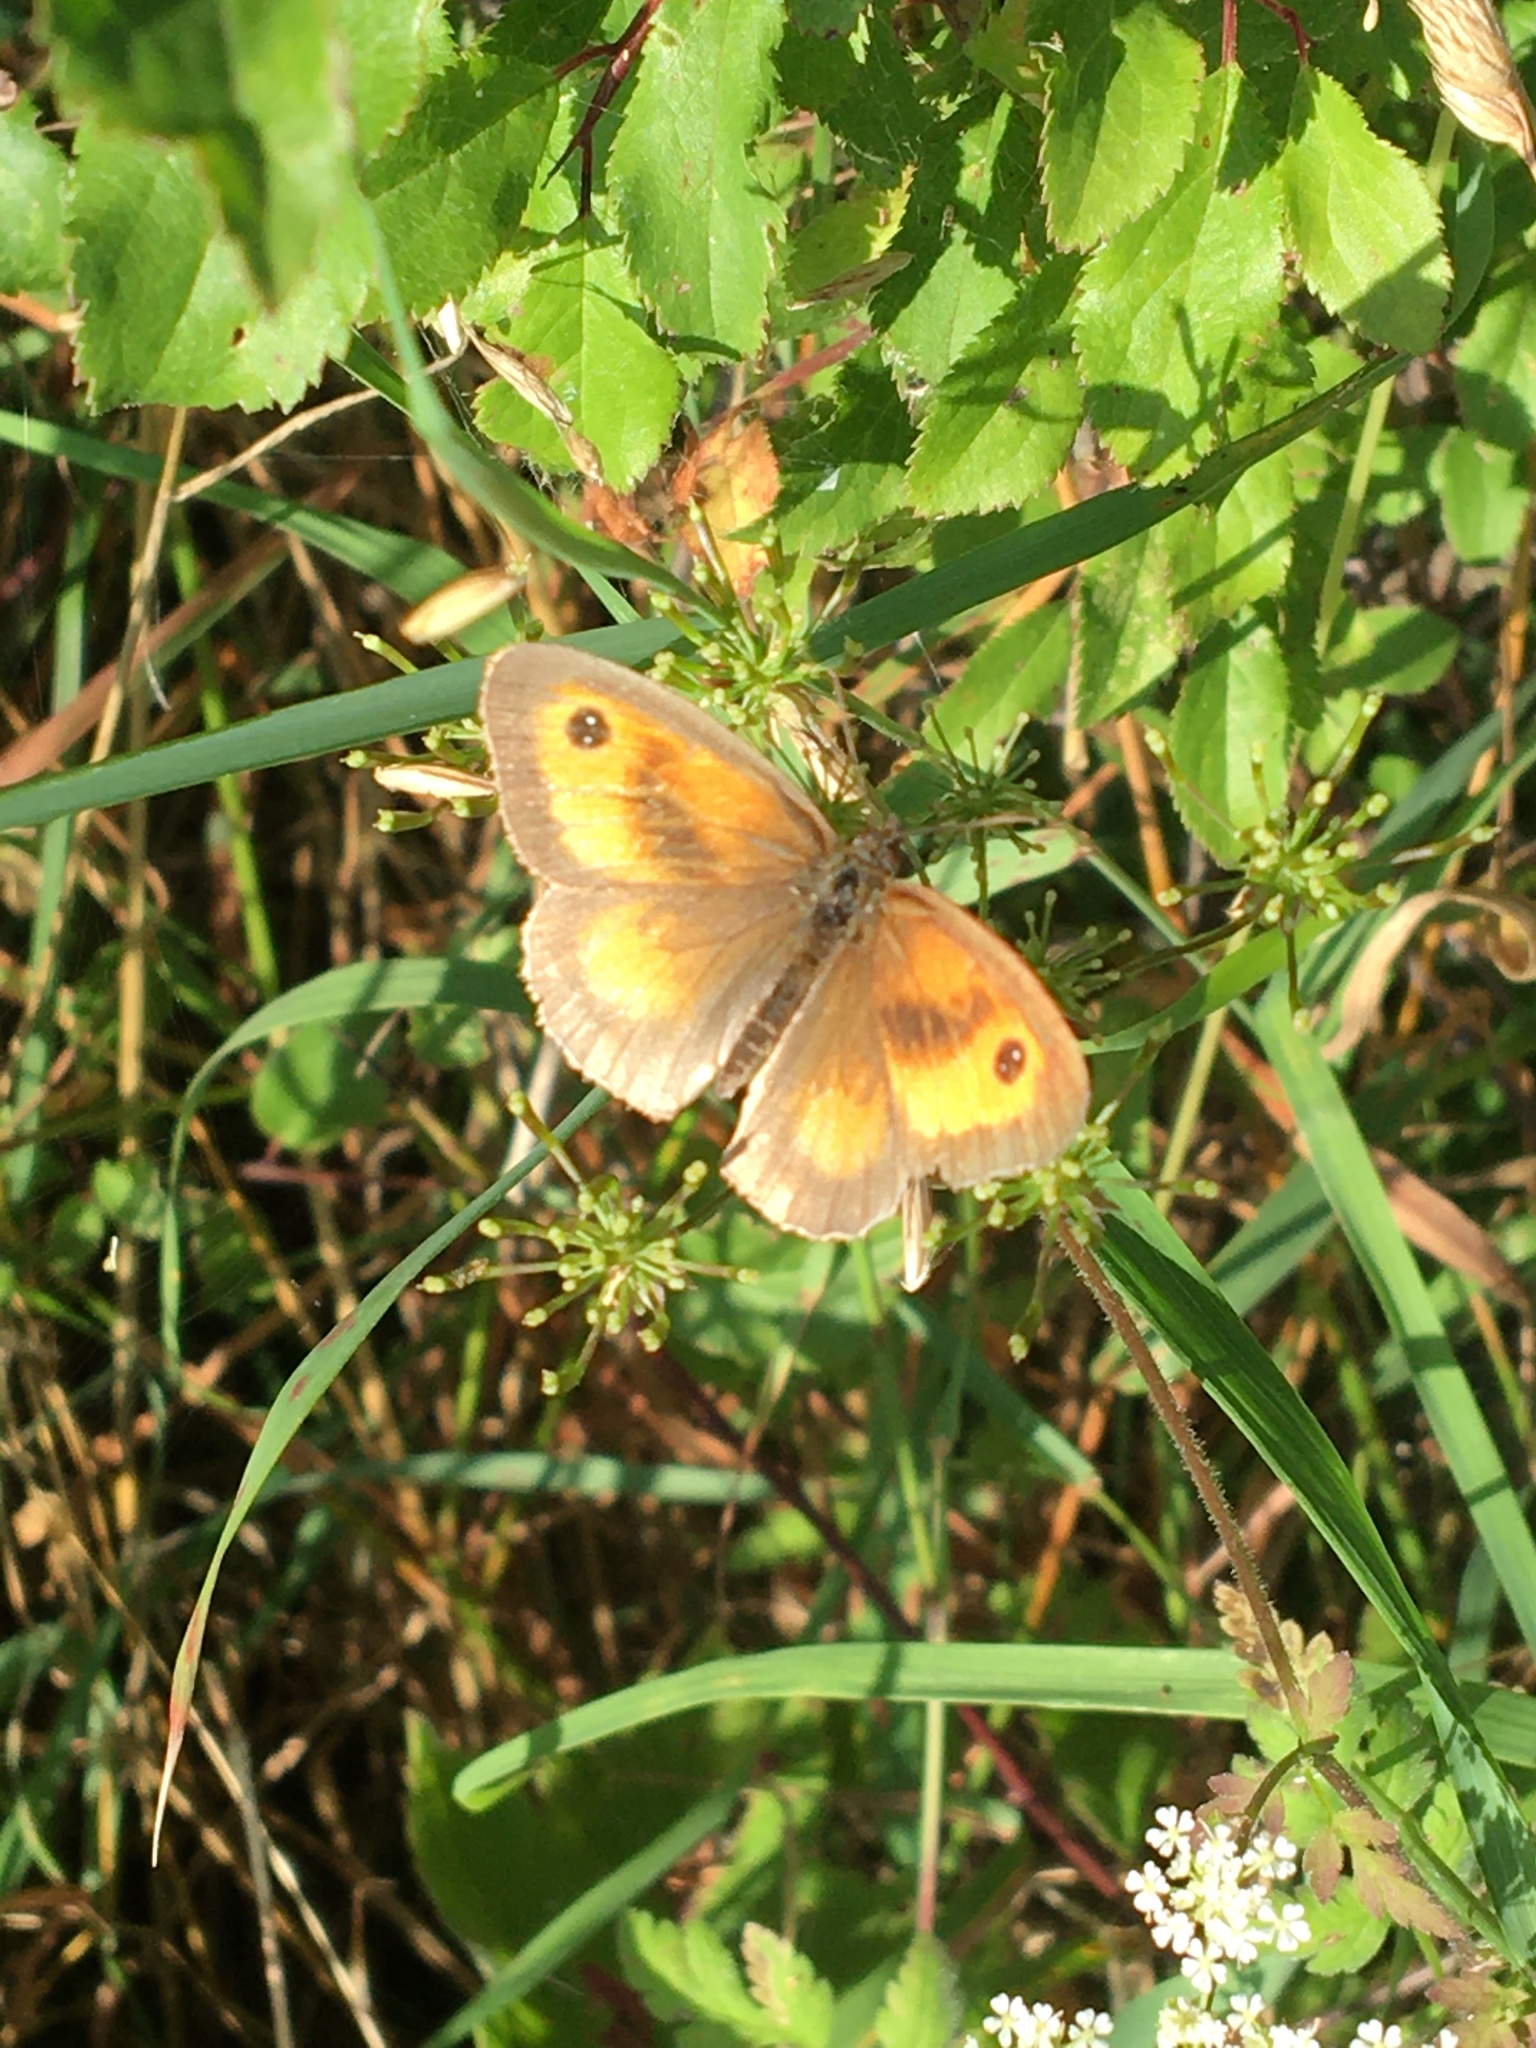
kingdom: Animalia
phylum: Arthropoda
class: Insecta
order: Lepidoptera
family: Nymphalidae
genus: Pyronia
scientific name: Pyronia tithonus
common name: Gatekeeper
